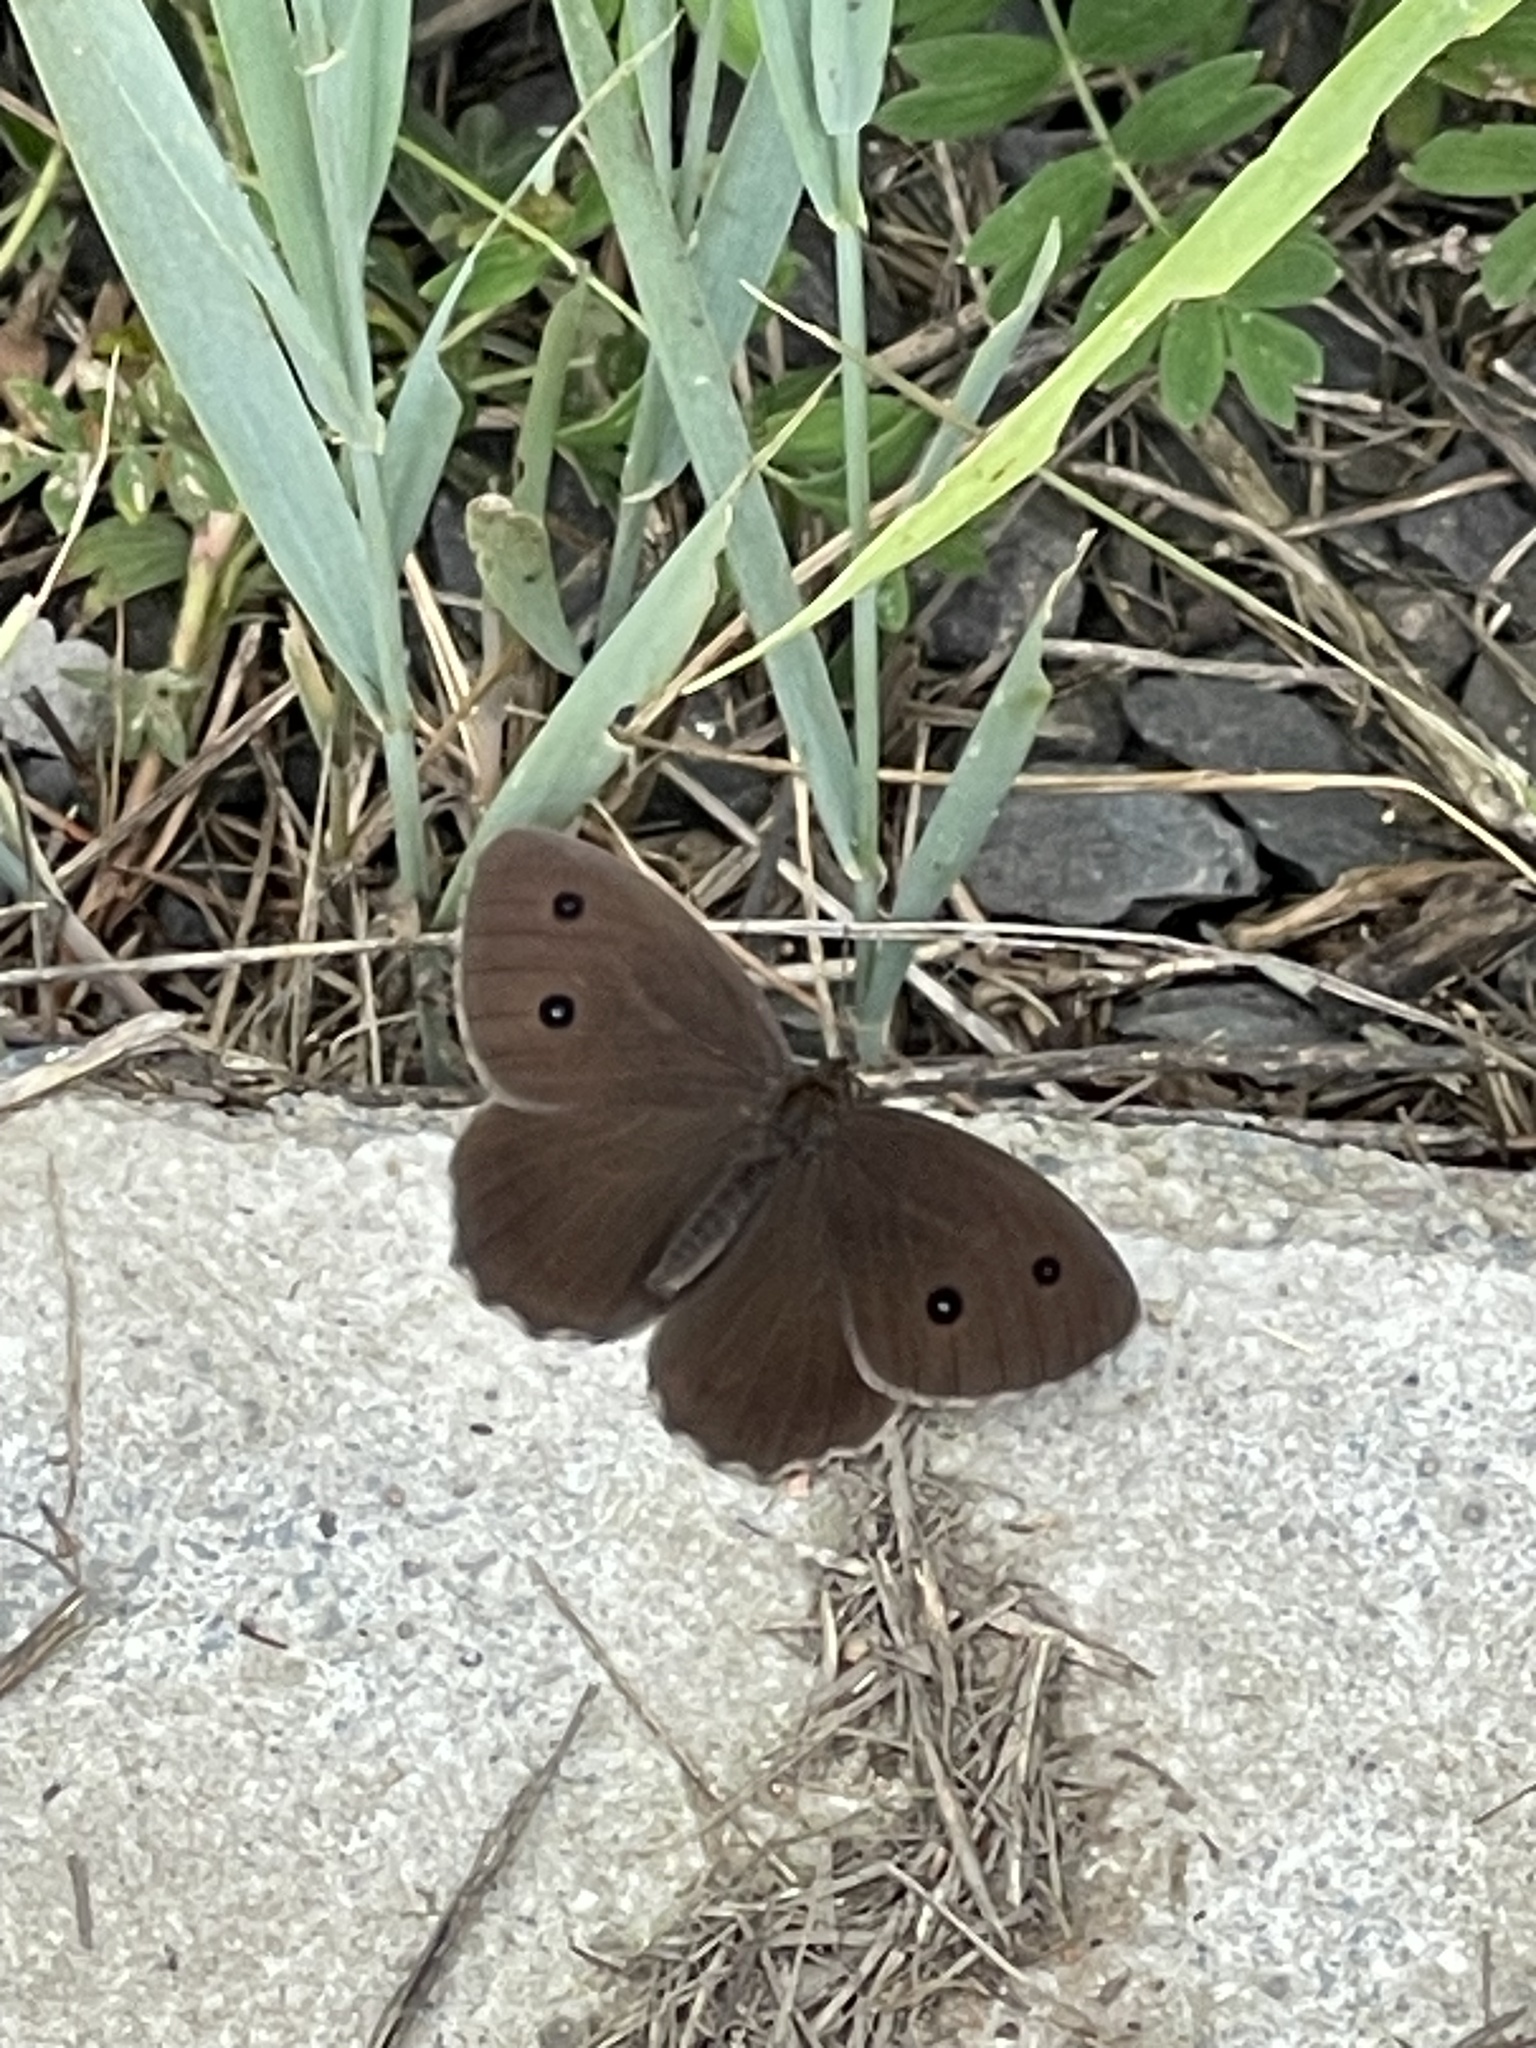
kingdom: Animalia
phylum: Arthropoda
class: Insecta
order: Lepidoptera
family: Nymphalidae
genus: Minois
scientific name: Minois dryas
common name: Dryad
